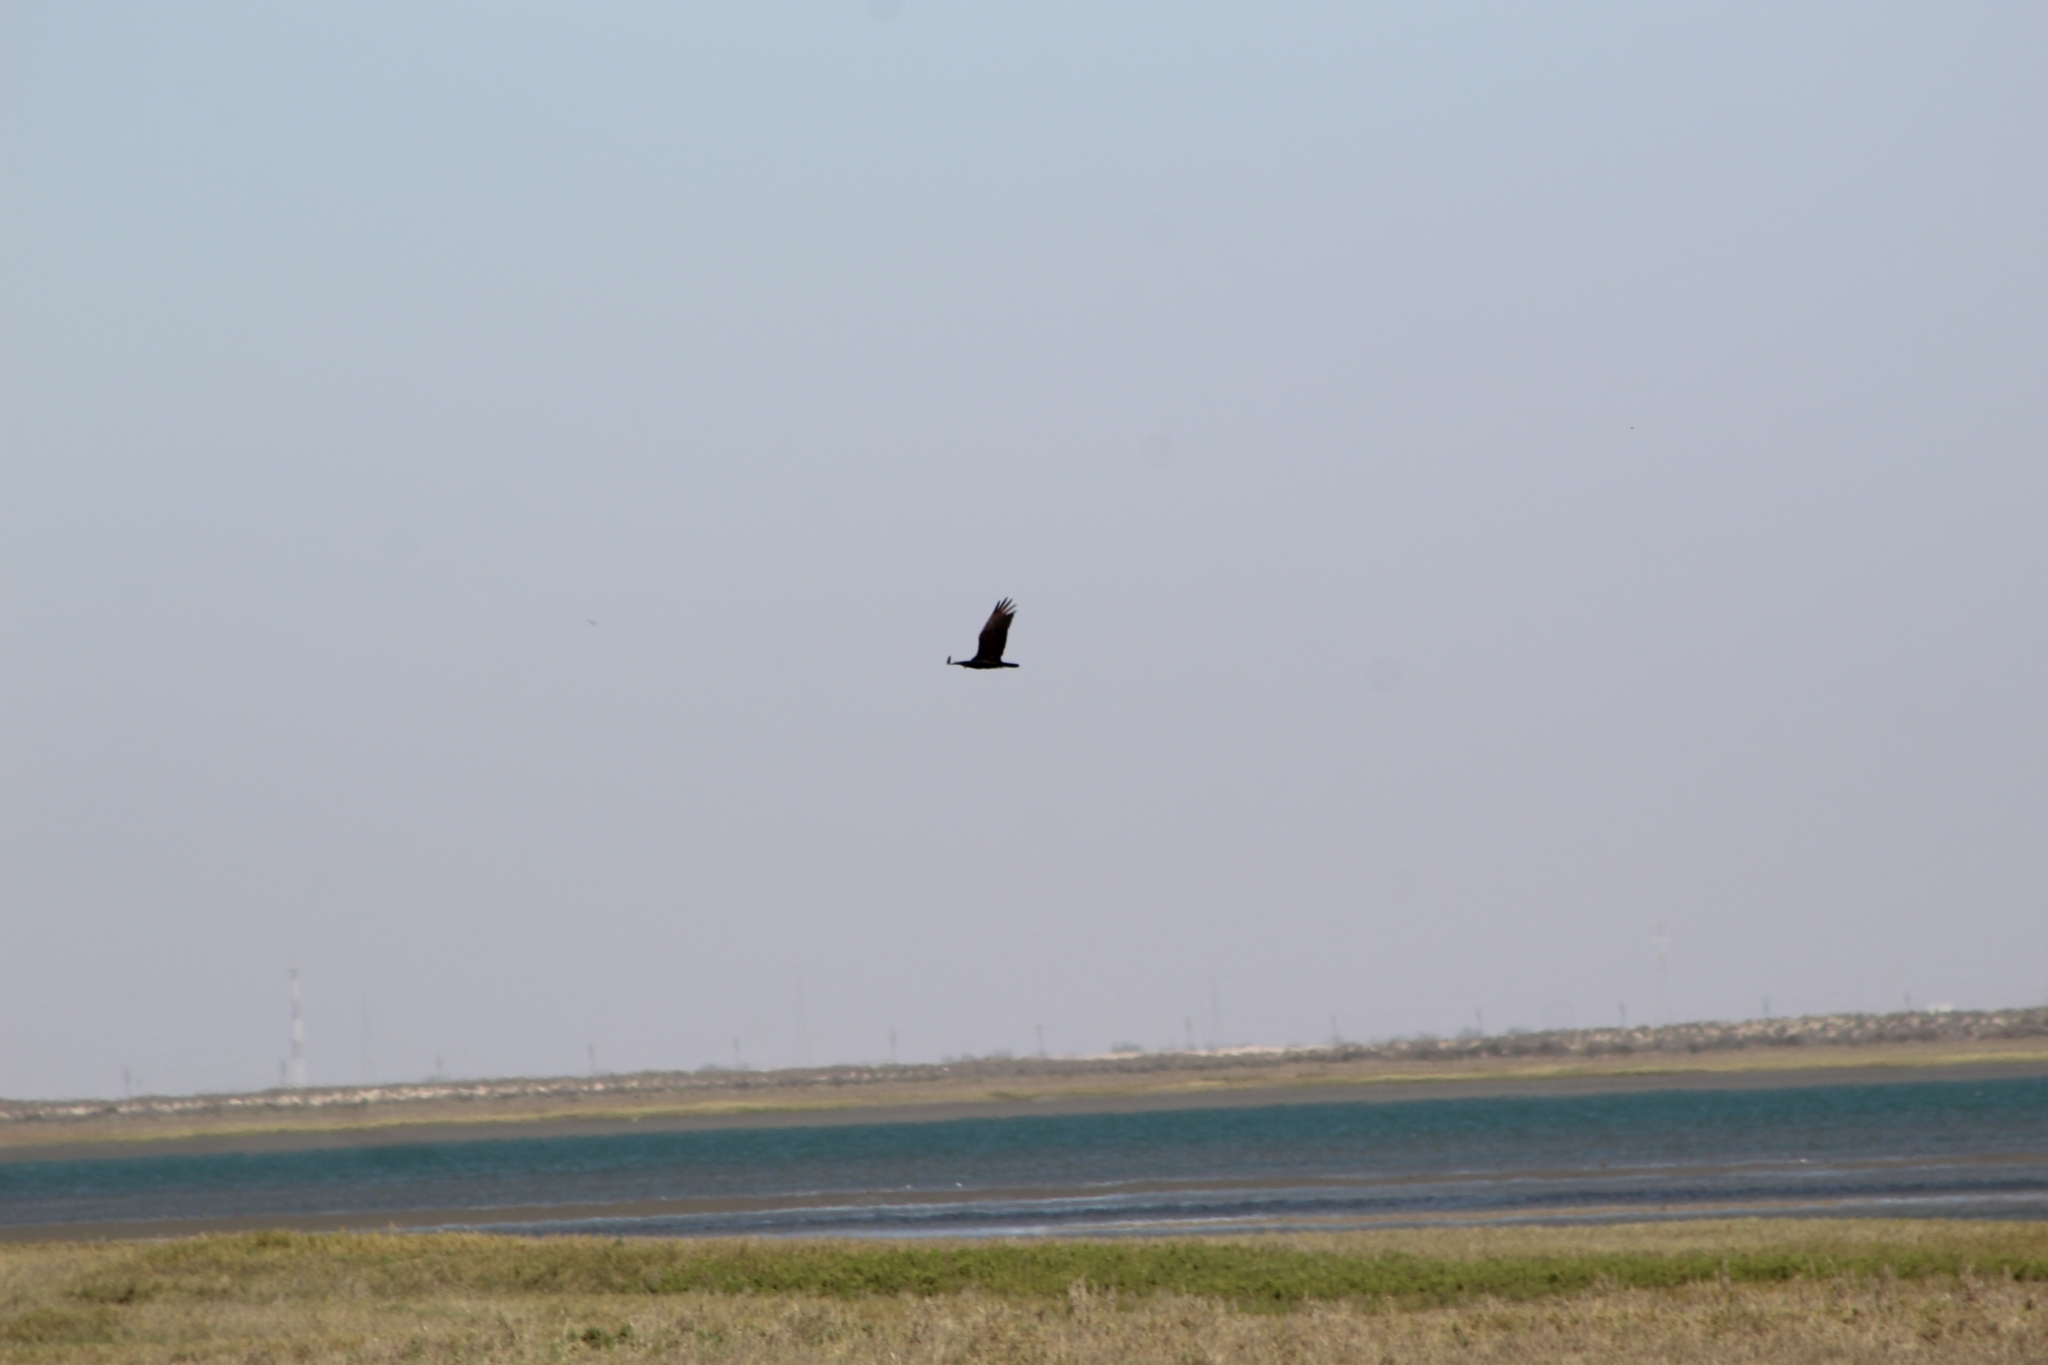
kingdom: Animalia
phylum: Chordata
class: Aves
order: Accipitriformes
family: Cathartidae
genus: Cathartes
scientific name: Cathartes aura
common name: Turkey vulture
